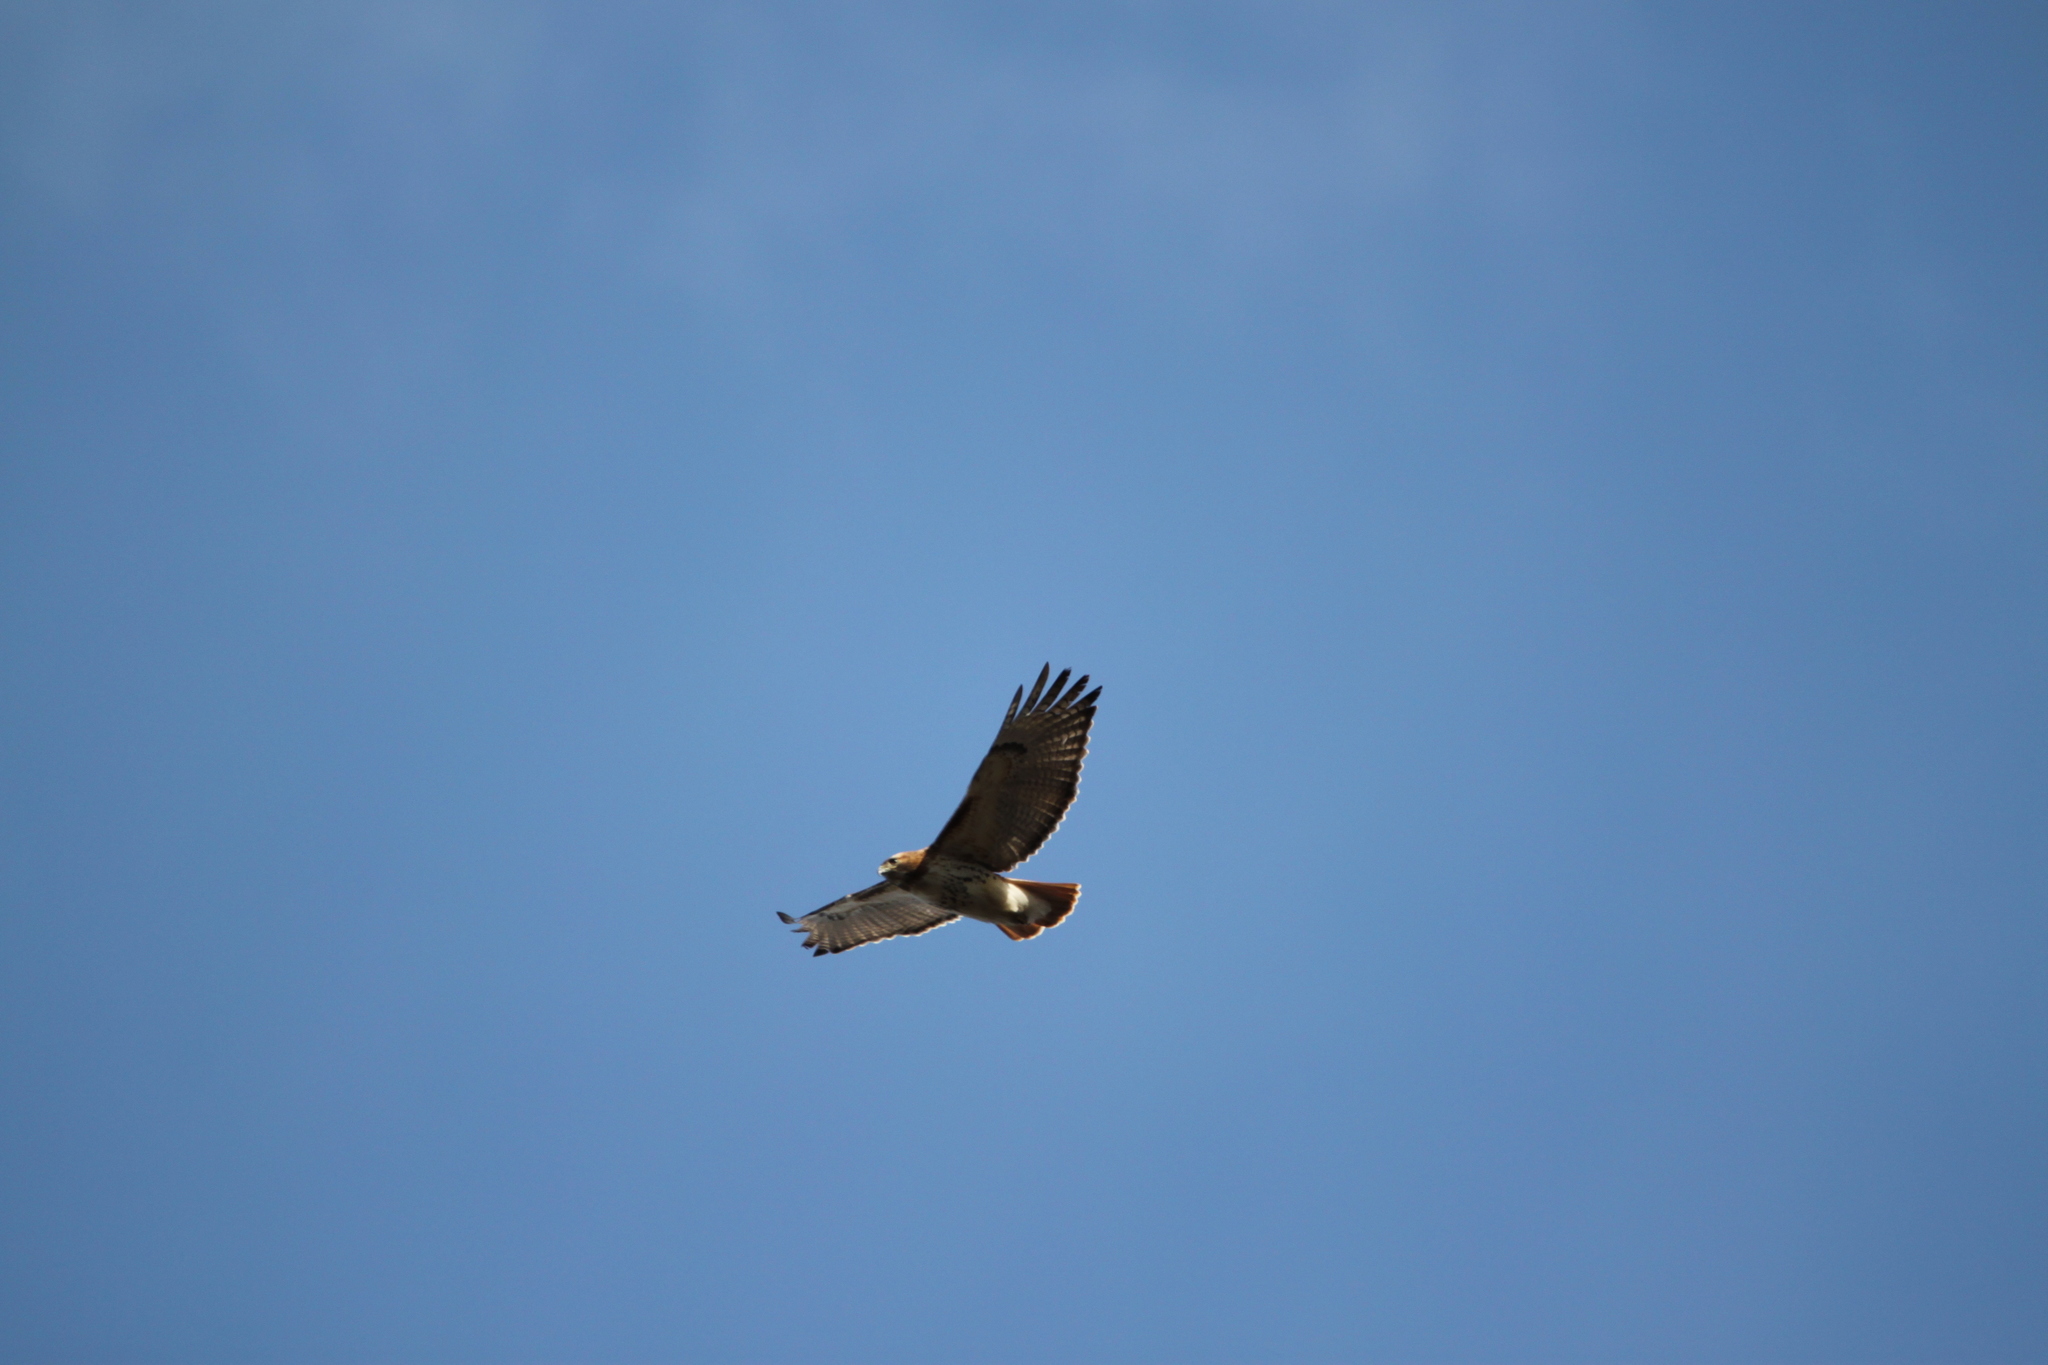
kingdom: Animalia
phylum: Chordata
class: Aves
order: Accipitriformes
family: Accipitridae
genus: Buteo
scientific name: Buteo jamaicensis
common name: Red-tailed hawk
